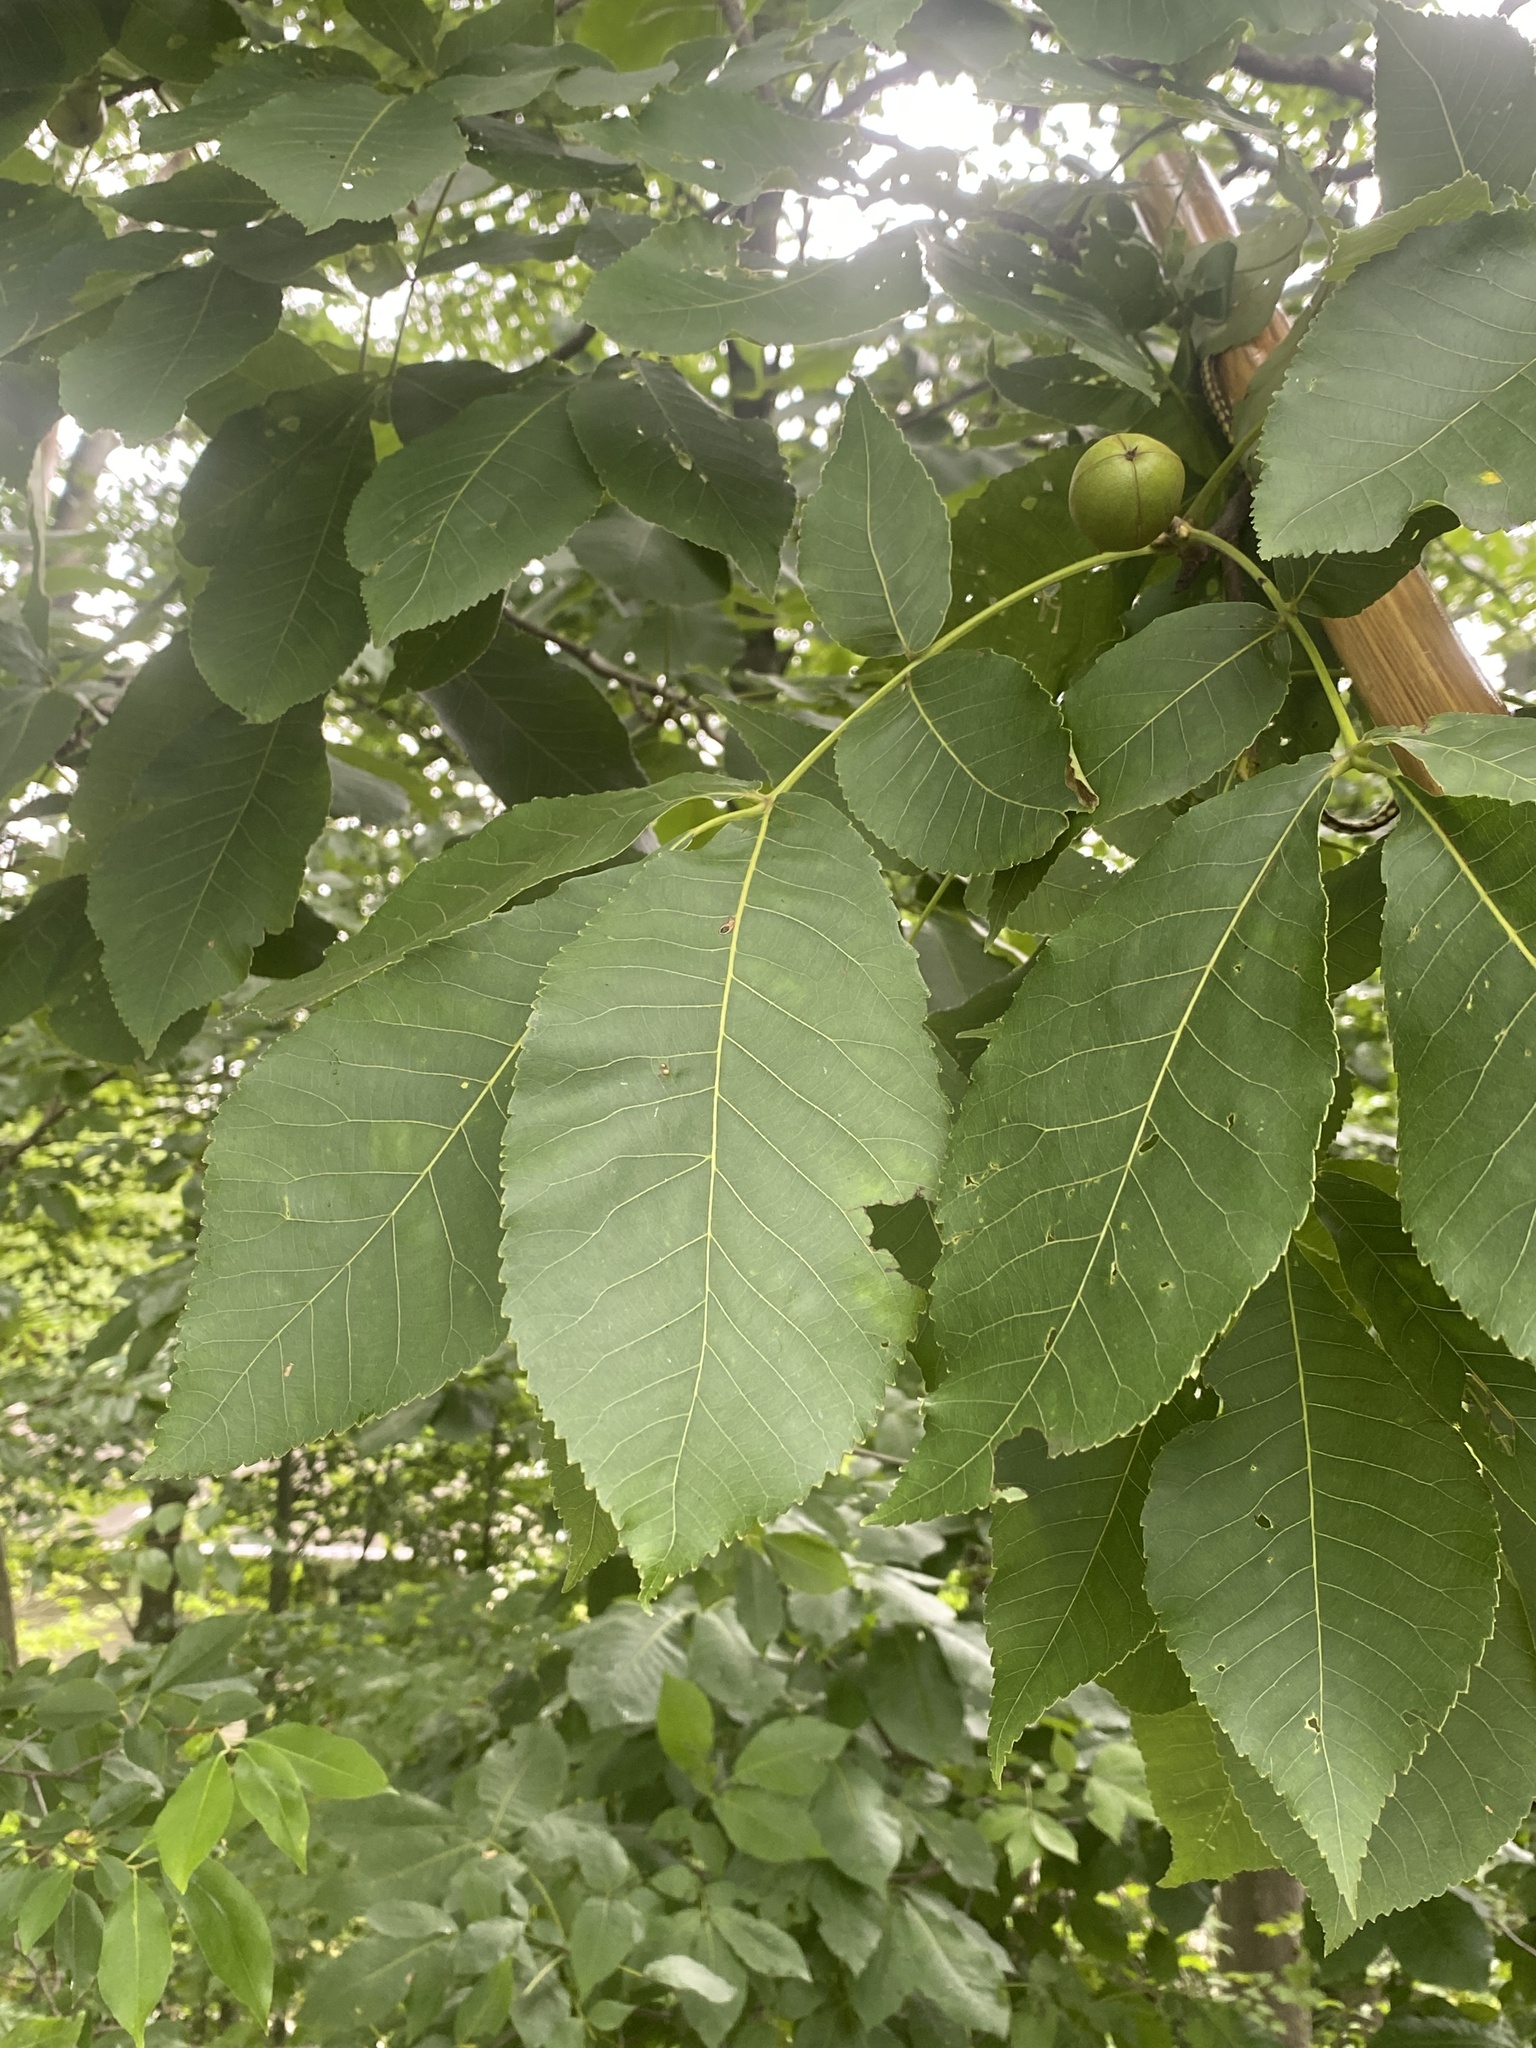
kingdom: Plantae
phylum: Tracheophyta
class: Magnoliopsida
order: Fagales
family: Juglandaceae
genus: Carya
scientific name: Carya ovata
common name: Shagbark hickory
